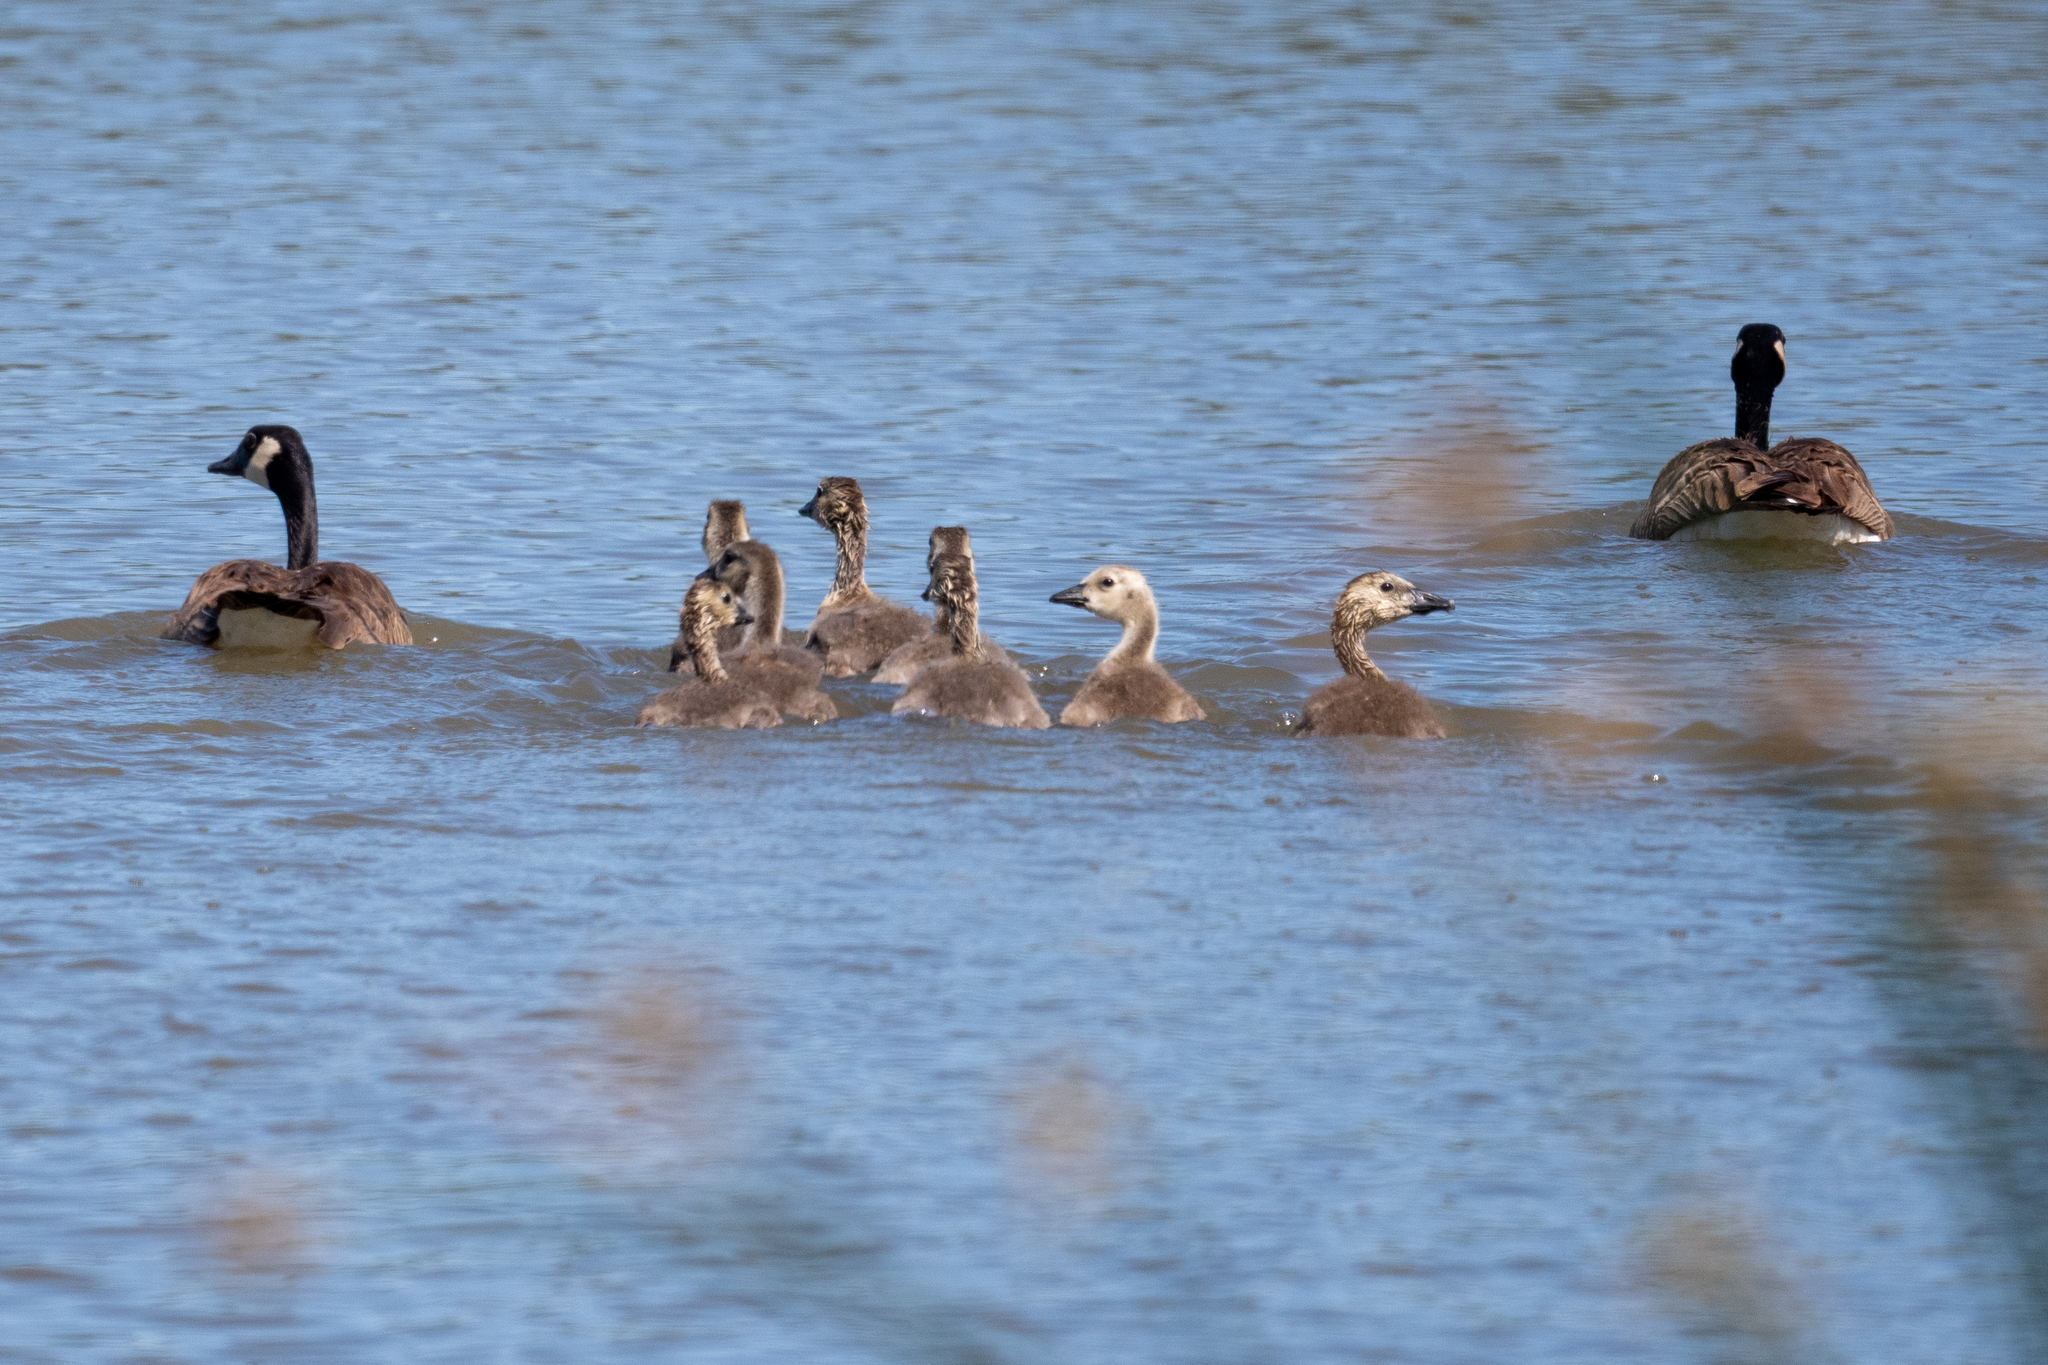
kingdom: Animalia
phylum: Chordata
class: Aves
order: Anseriformes
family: Anatidae
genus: Branta
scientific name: Branta canadensis
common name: Canada goose
